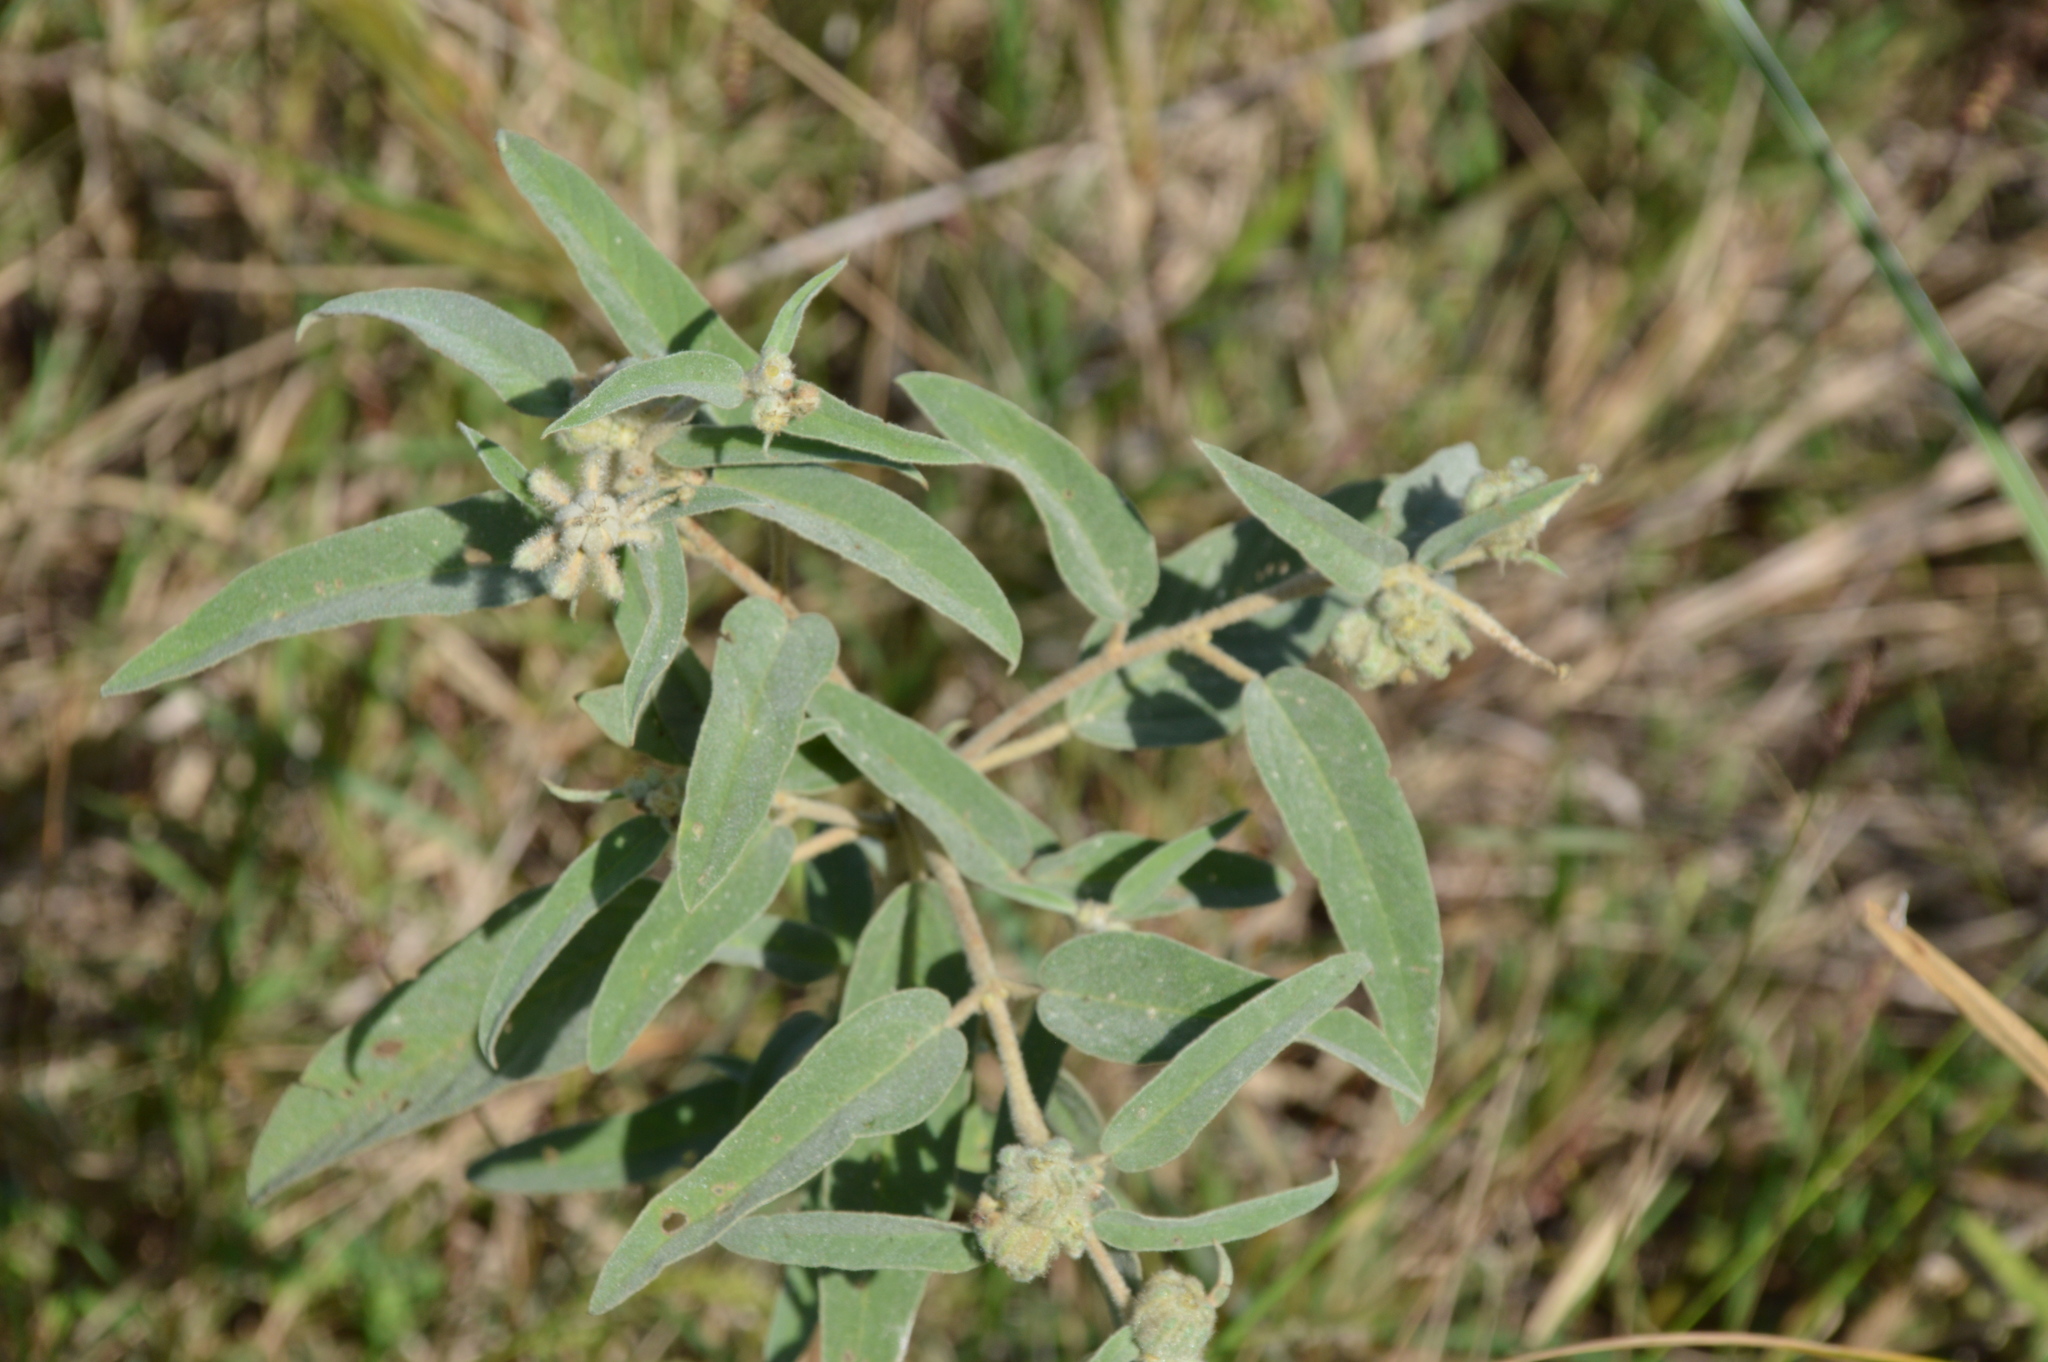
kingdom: Plantae
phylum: Tracheophyta
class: Magnoliopsida
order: Malpighiales
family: Euphorbiaceae
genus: Croton
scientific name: Croton lindheimeri
